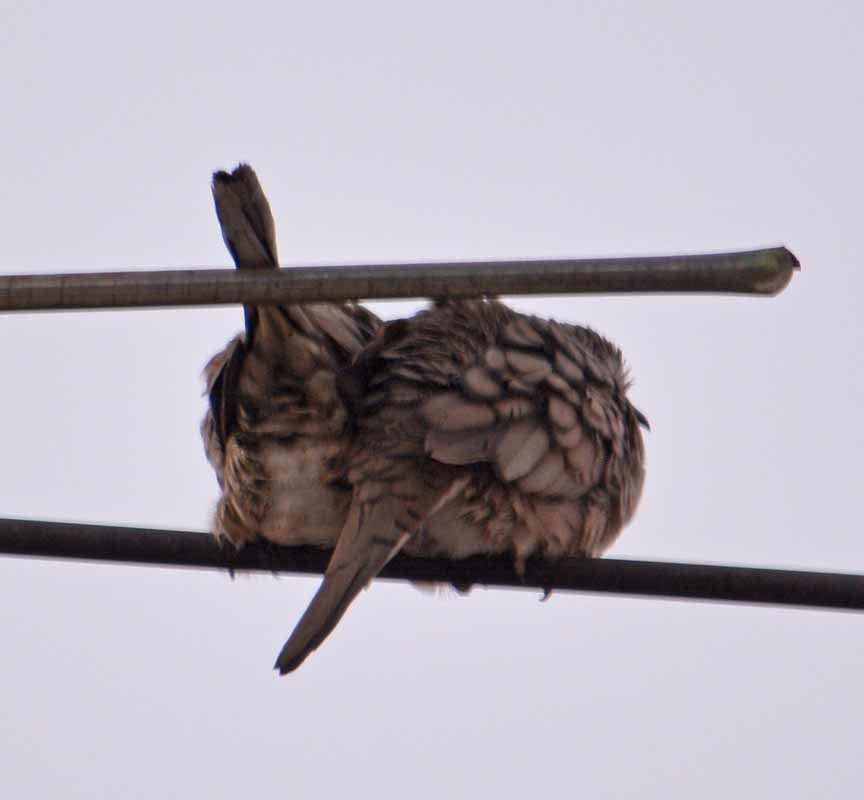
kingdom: Animalia
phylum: Chordata
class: Aves
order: Columbiformes
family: Columbidae
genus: Columbina
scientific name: Columbina inca
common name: Inca dove
